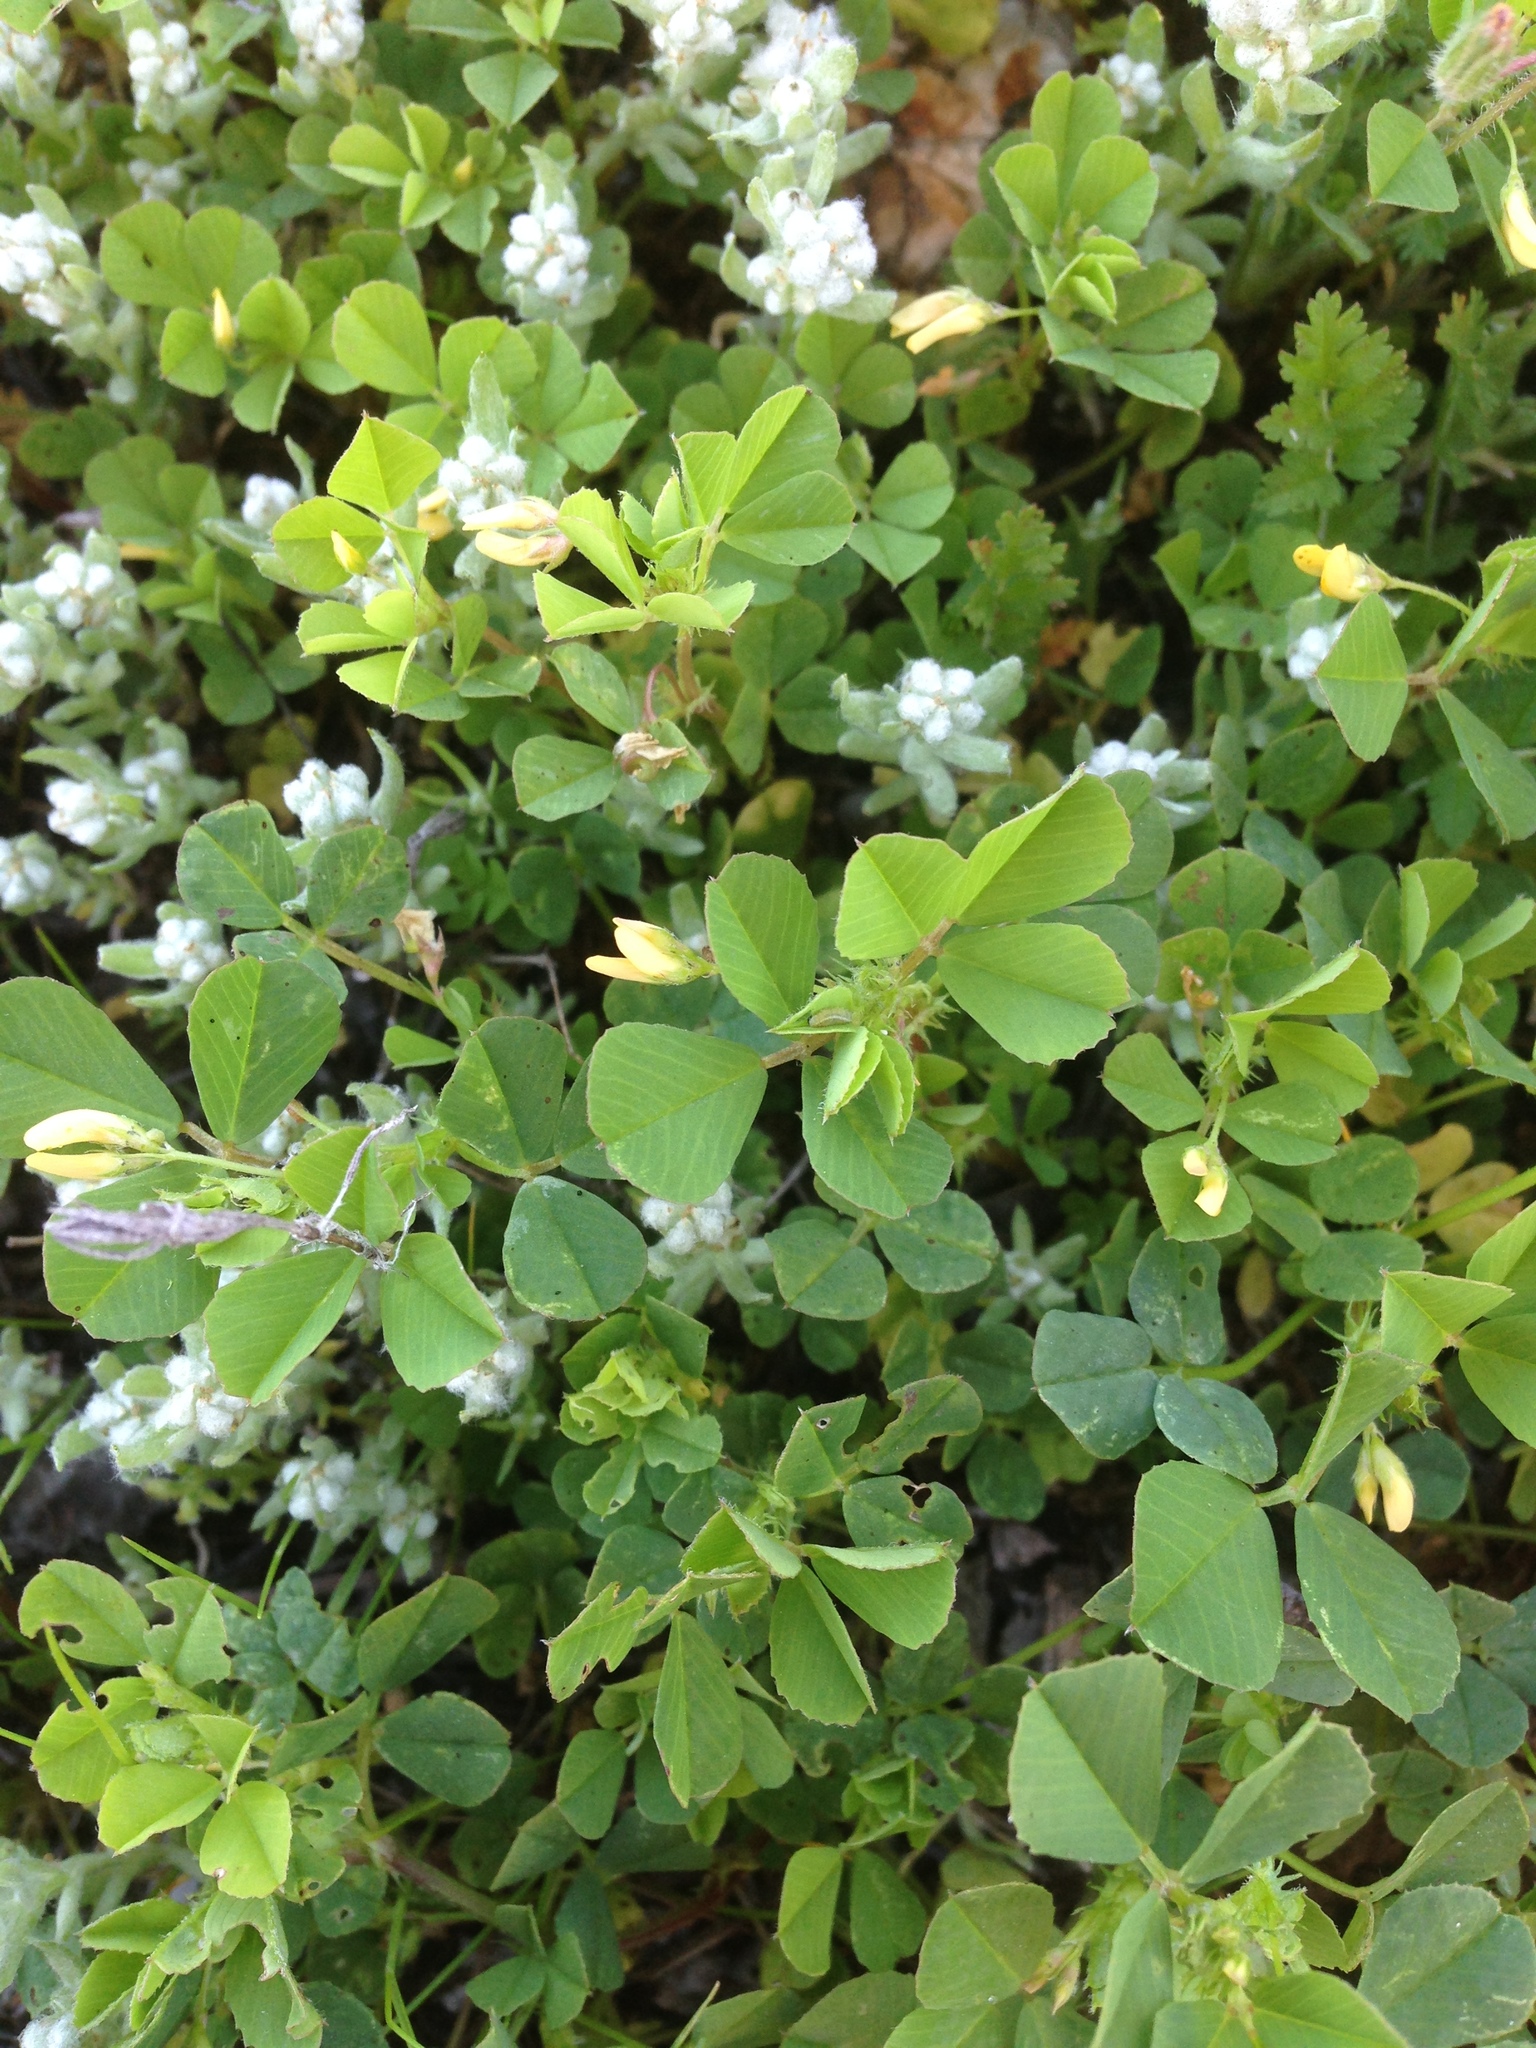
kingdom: Plantae
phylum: Tracheophyta
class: Magnoliopsida
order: Fabales
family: Fabaceae
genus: Medicago
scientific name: Medicago polymorpha
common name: Burclover
